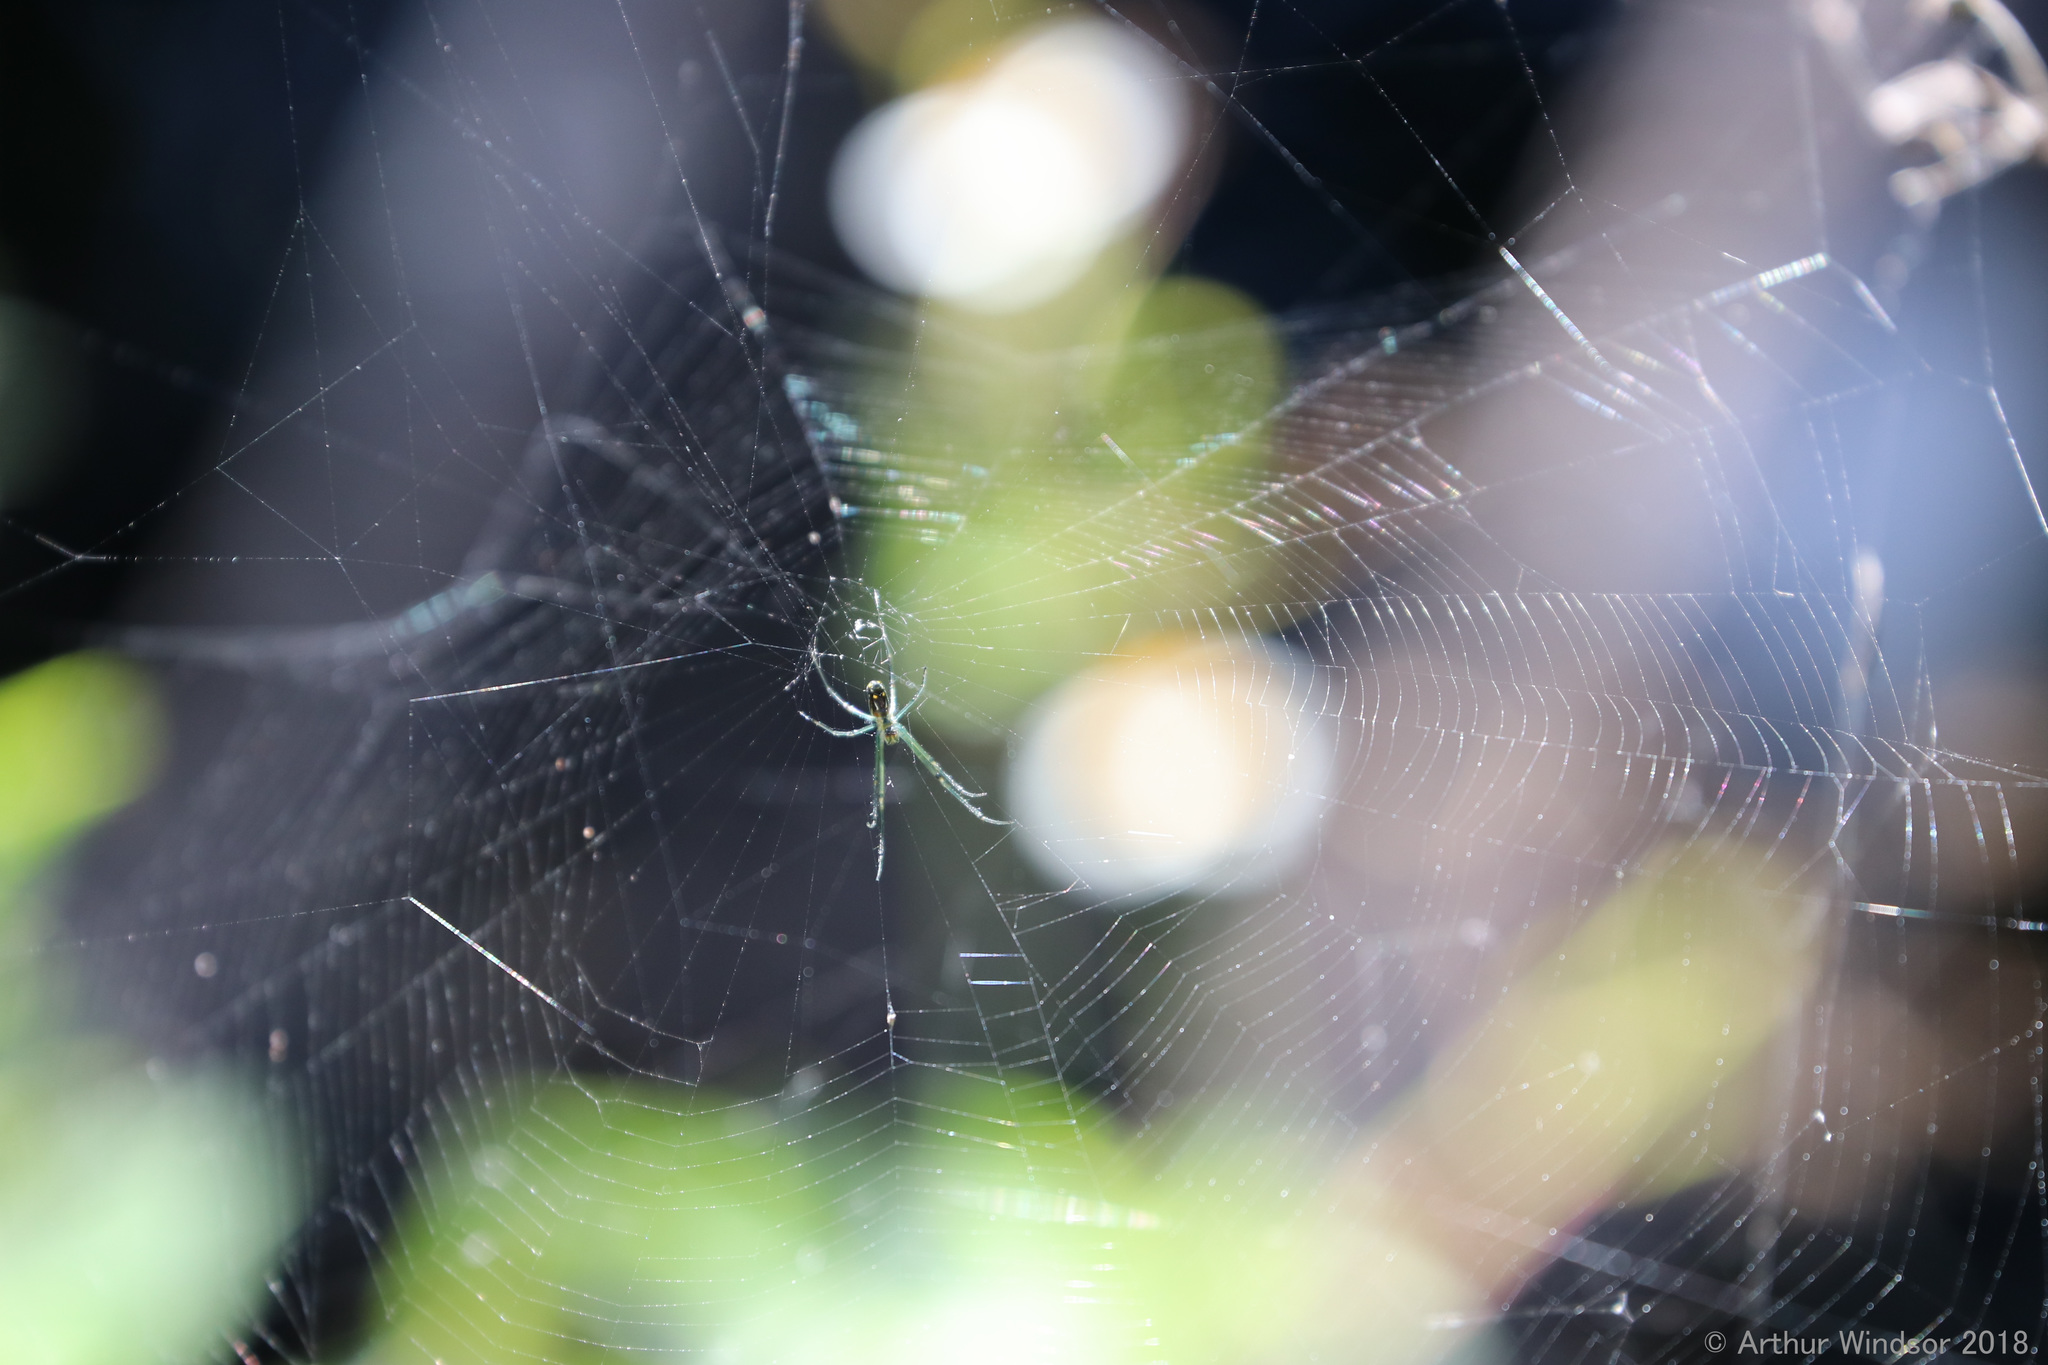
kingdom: Animalia
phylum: Arthropoda
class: Arachnida
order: Araneae
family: Tetragnathidae
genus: Leucauge
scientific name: Leucauge argyra
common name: Longjawed orb weavers
